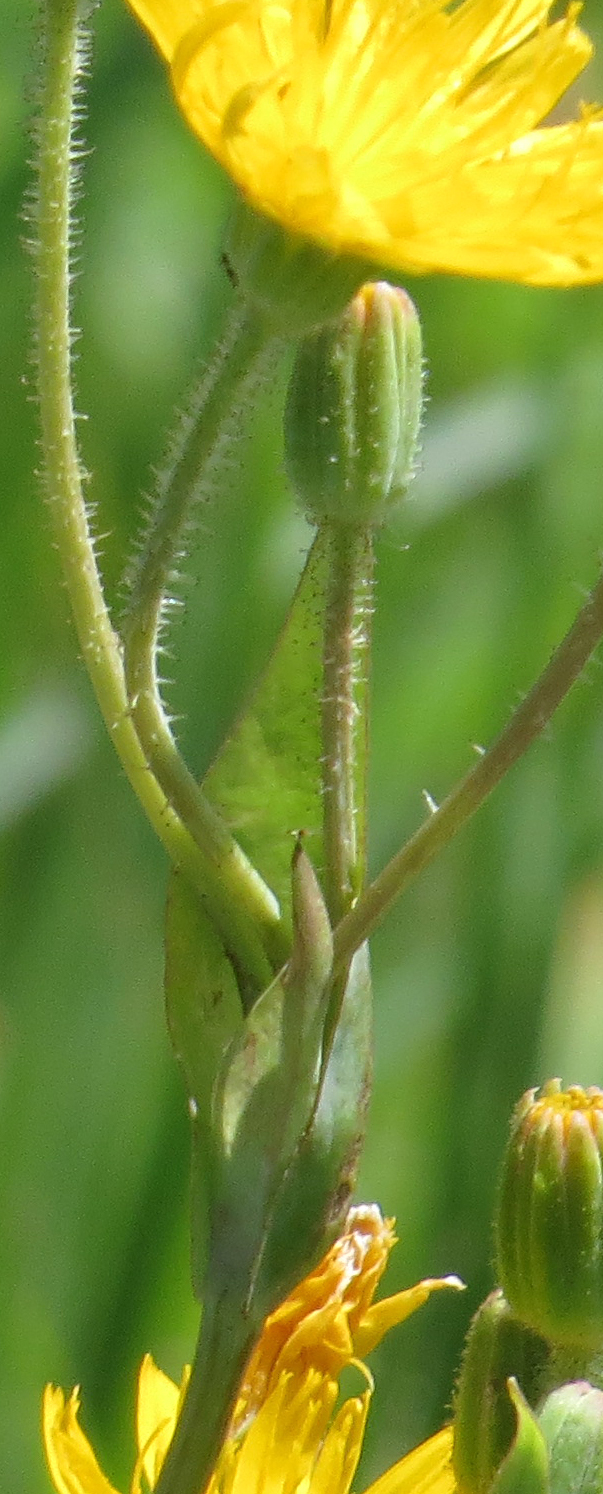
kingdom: Plantae
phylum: Tracheophyta
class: Magnoliopsida
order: Asterales
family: Asteraceae
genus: Krigia
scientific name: Krigia biflora
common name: Orange dwarf-dandelion
